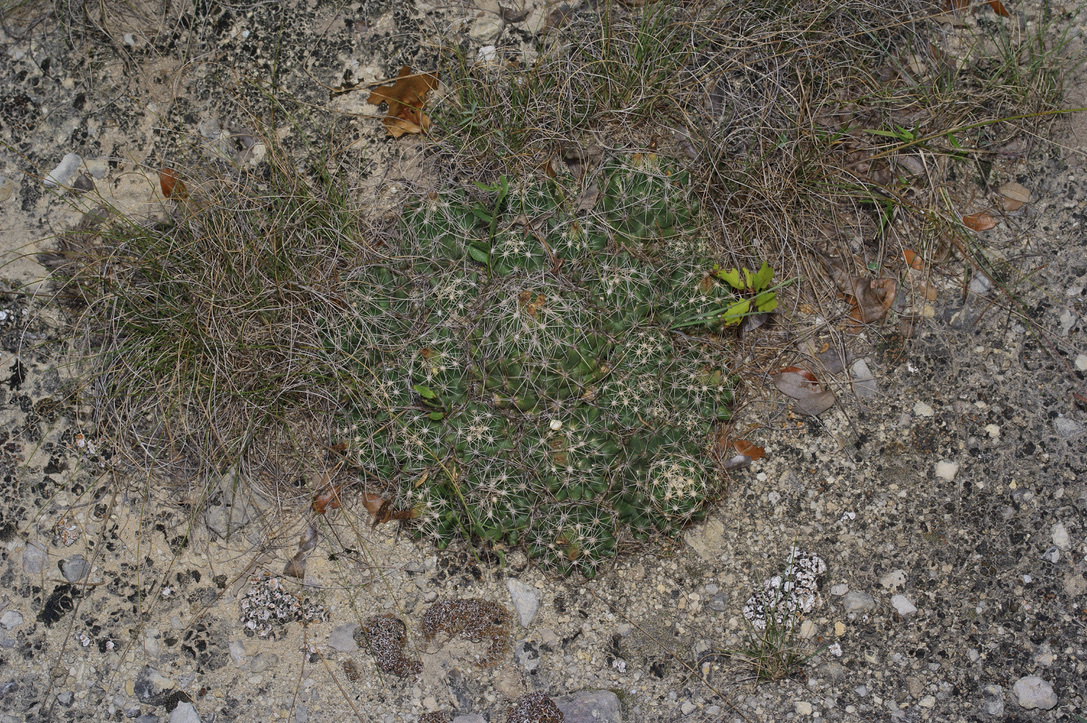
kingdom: Plantae
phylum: Tracheophyta
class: Magnoliopsida
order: Caryophyllales
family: Cactaceae
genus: Coryphantha
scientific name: Coryphantha sulcata
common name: Finger cactus
